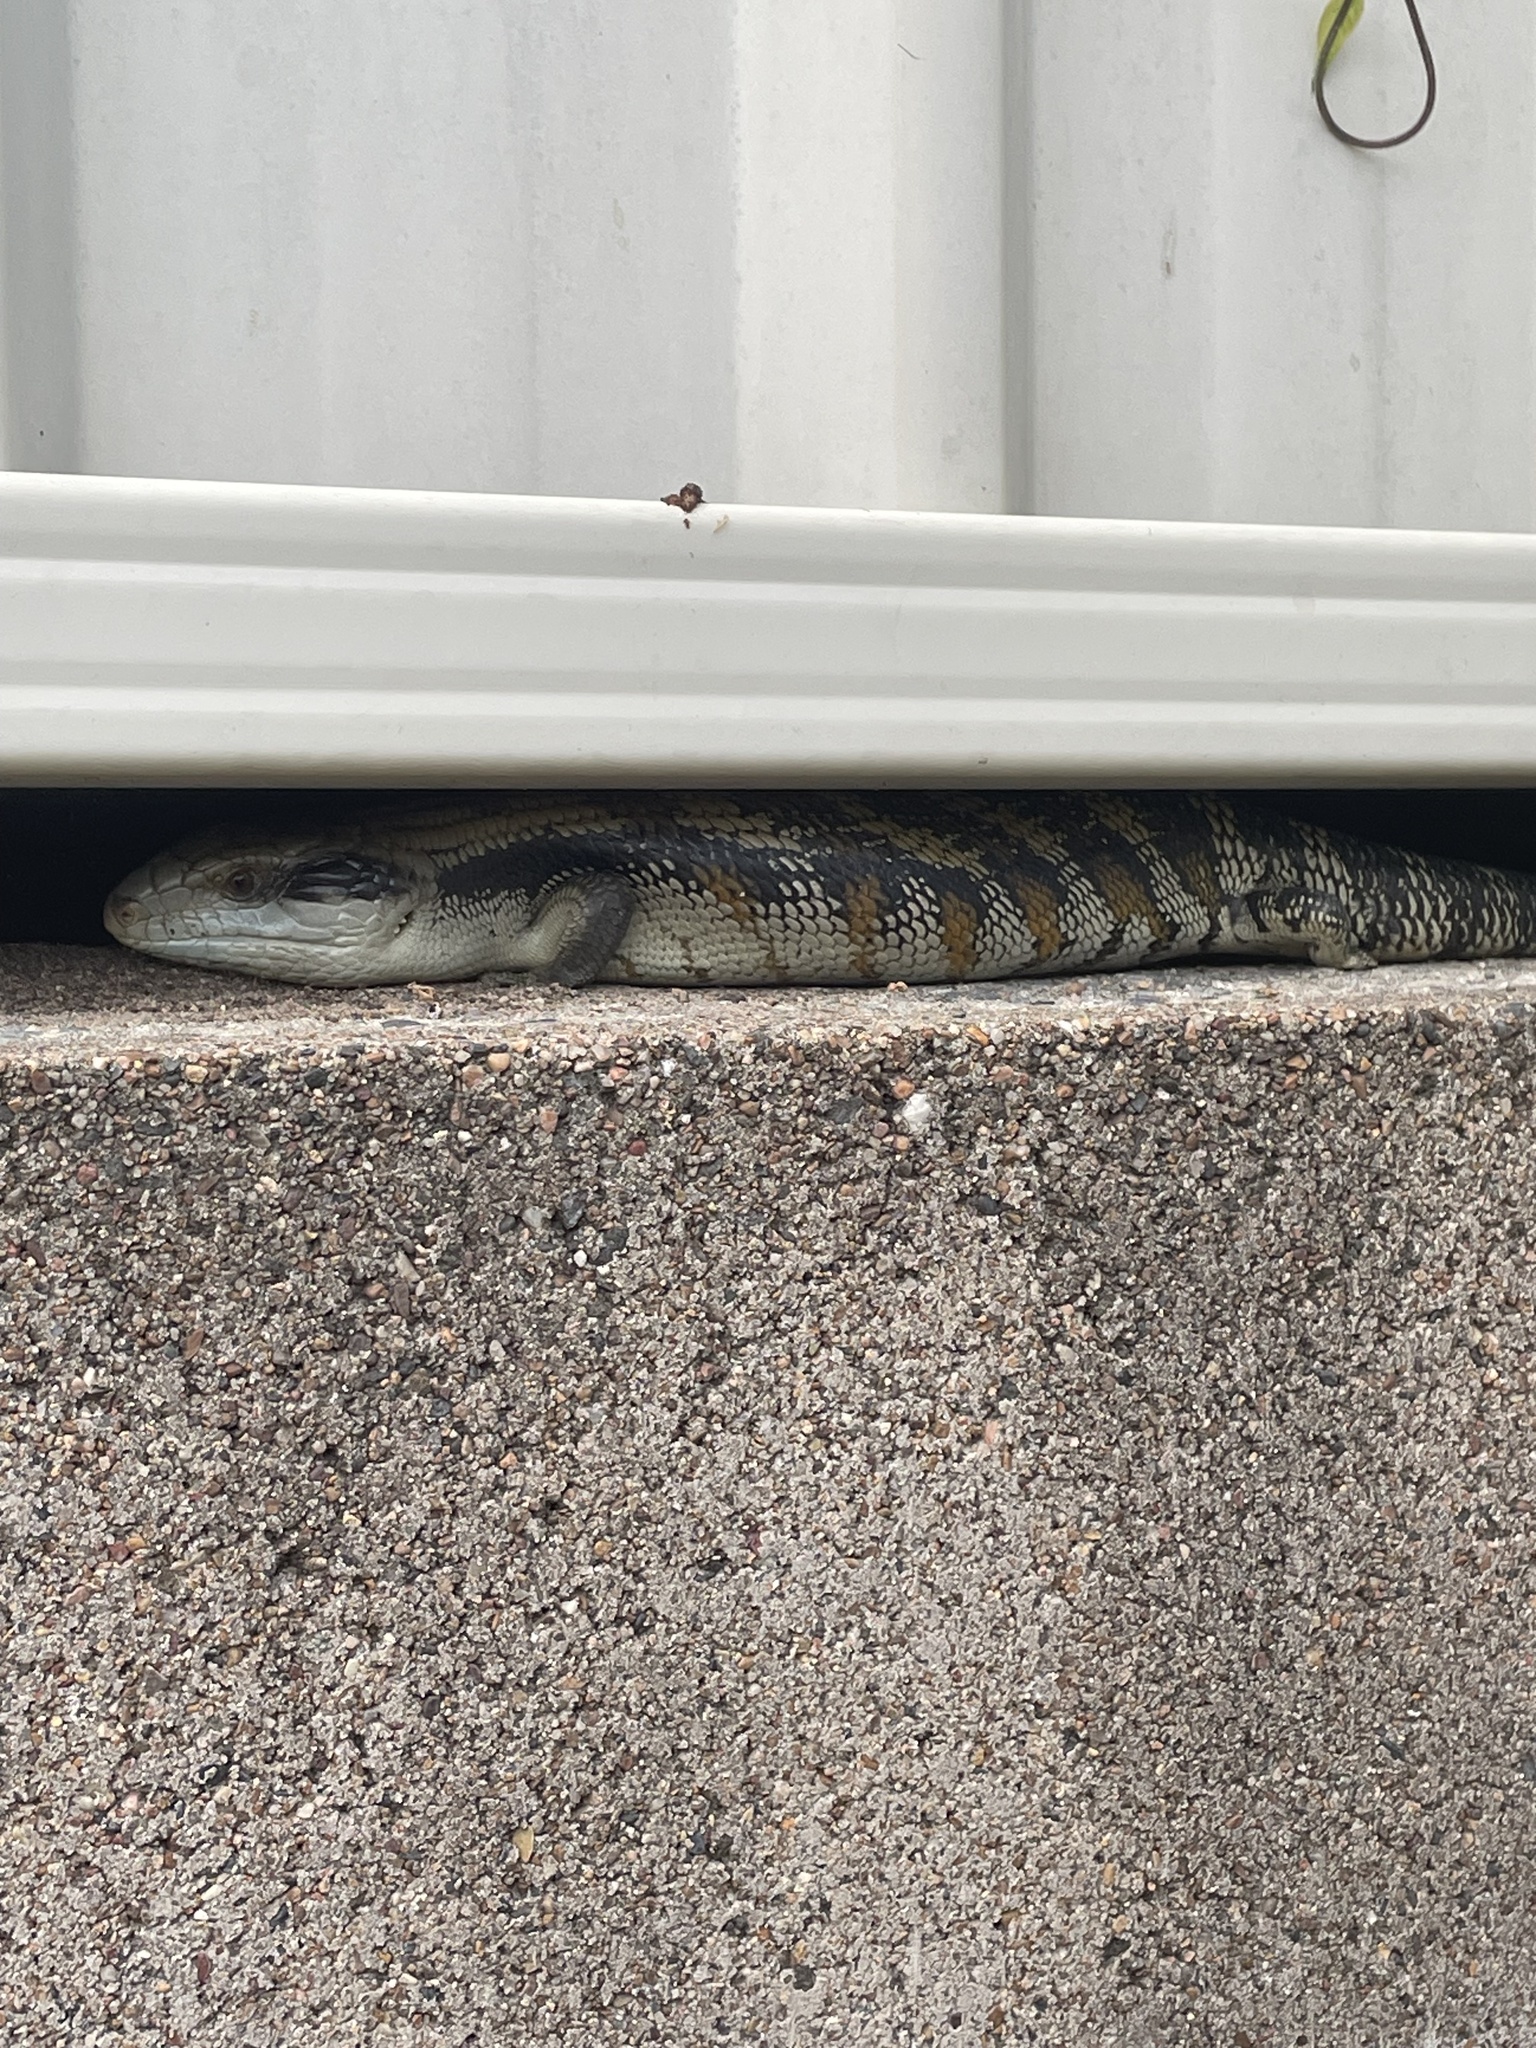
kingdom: Animalia
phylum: Chordata
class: Squamata
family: Scincidae
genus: Tiliqua
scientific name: Tiliqua scincoides
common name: Common bluetongue
